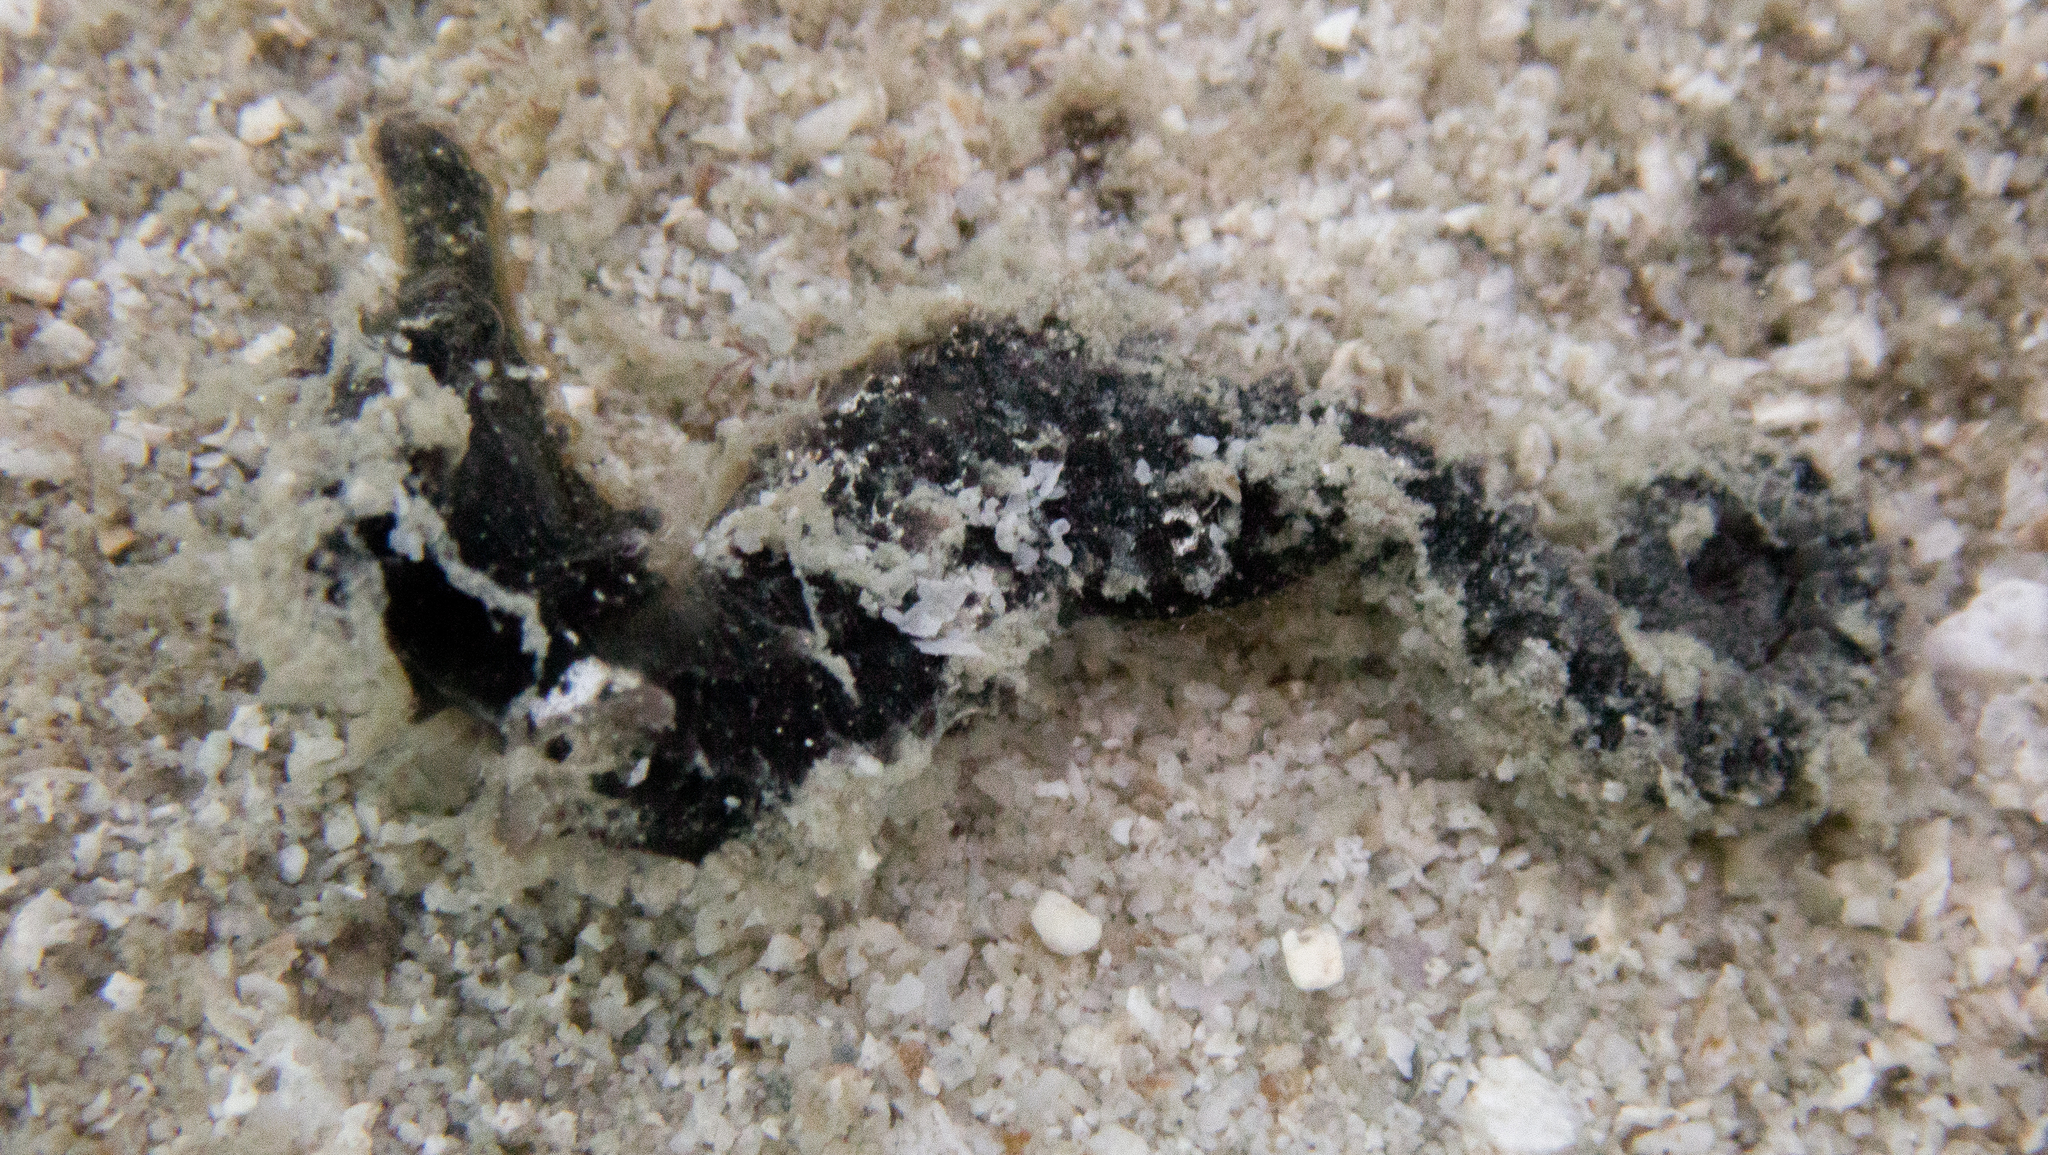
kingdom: Animalia
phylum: Chordata
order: Syngnathiformes
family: Syngnathidae
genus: Hippocampus
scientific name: Hippocampus kuda
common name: Spotted seahorse
